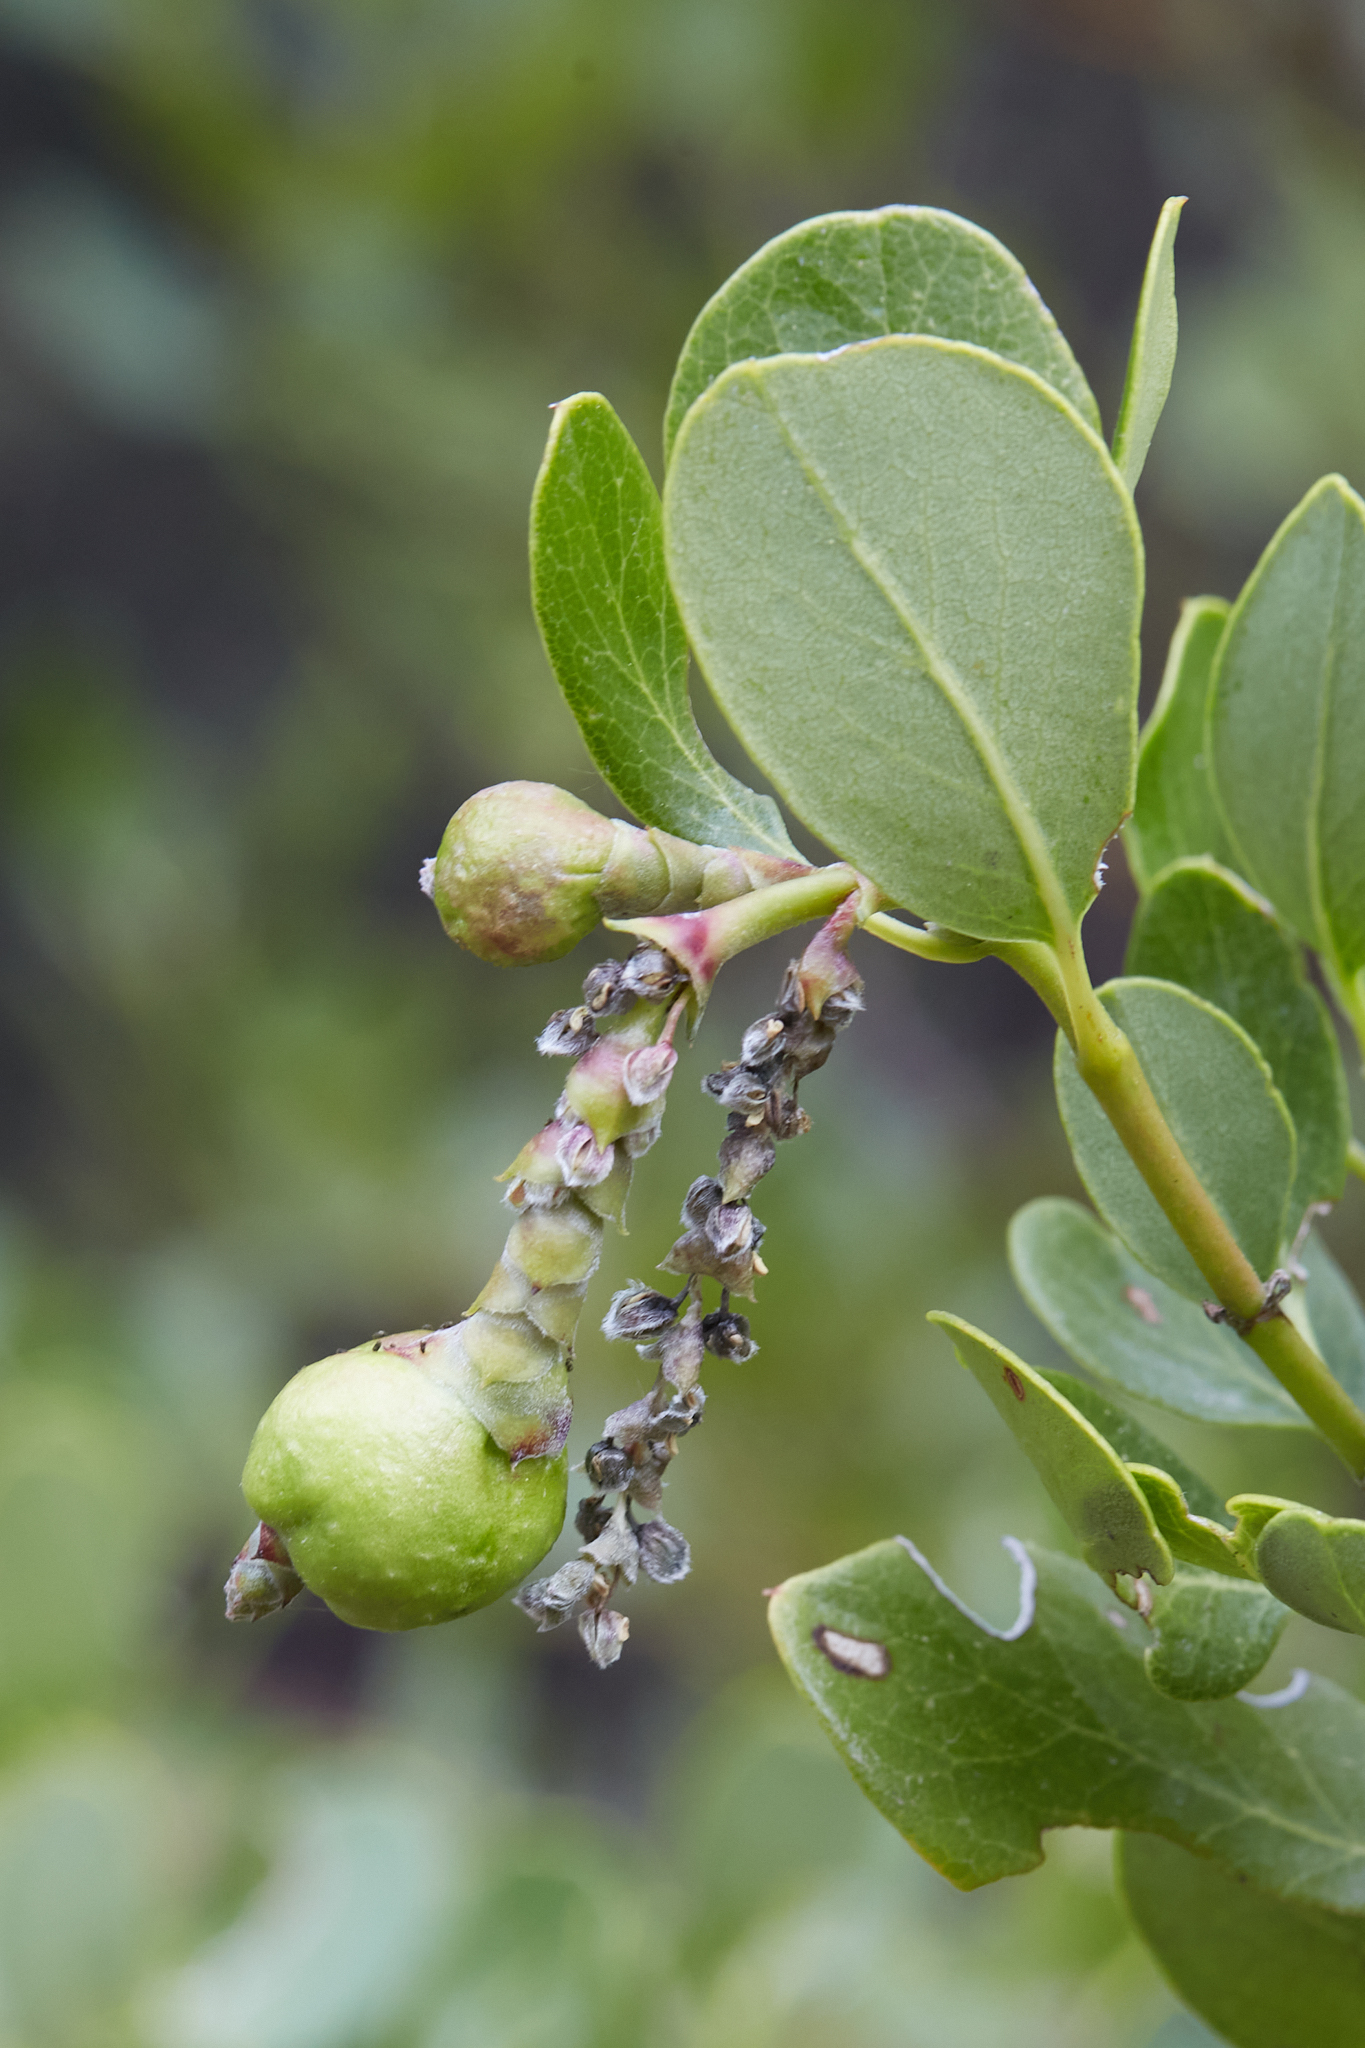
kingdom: Animalia
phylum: Arthropoda
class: Insecta
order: Diptera
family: Cecidomyiidae
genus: Asphondylia
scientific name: Asphondylia garryae
